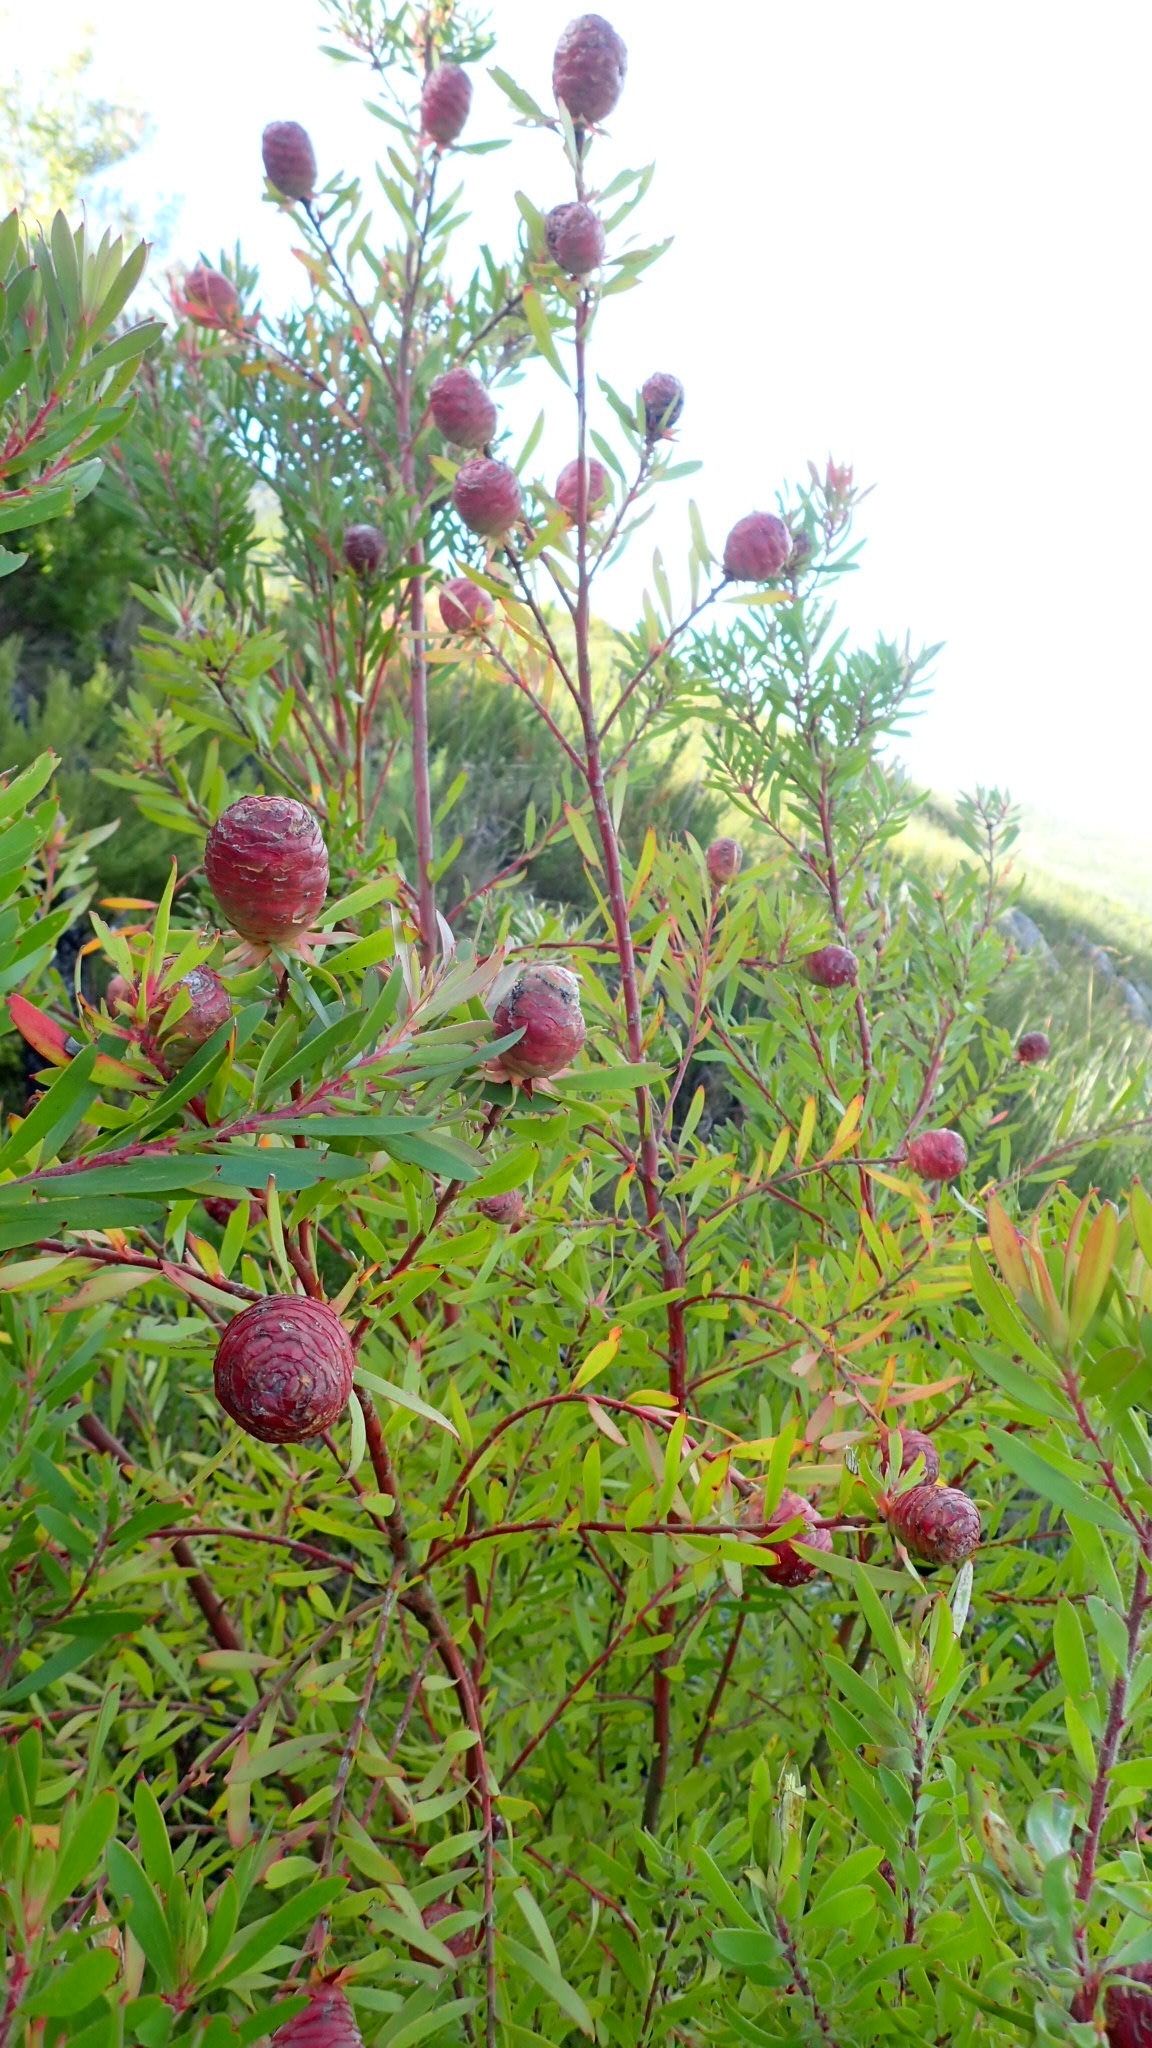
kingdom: Plantae
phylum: Tracheophyta
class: Magnoliopsida
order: Proteales
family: Proteaceae
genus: Leucadendron
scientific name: Leucadendron conicum
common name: Garden route conebush
